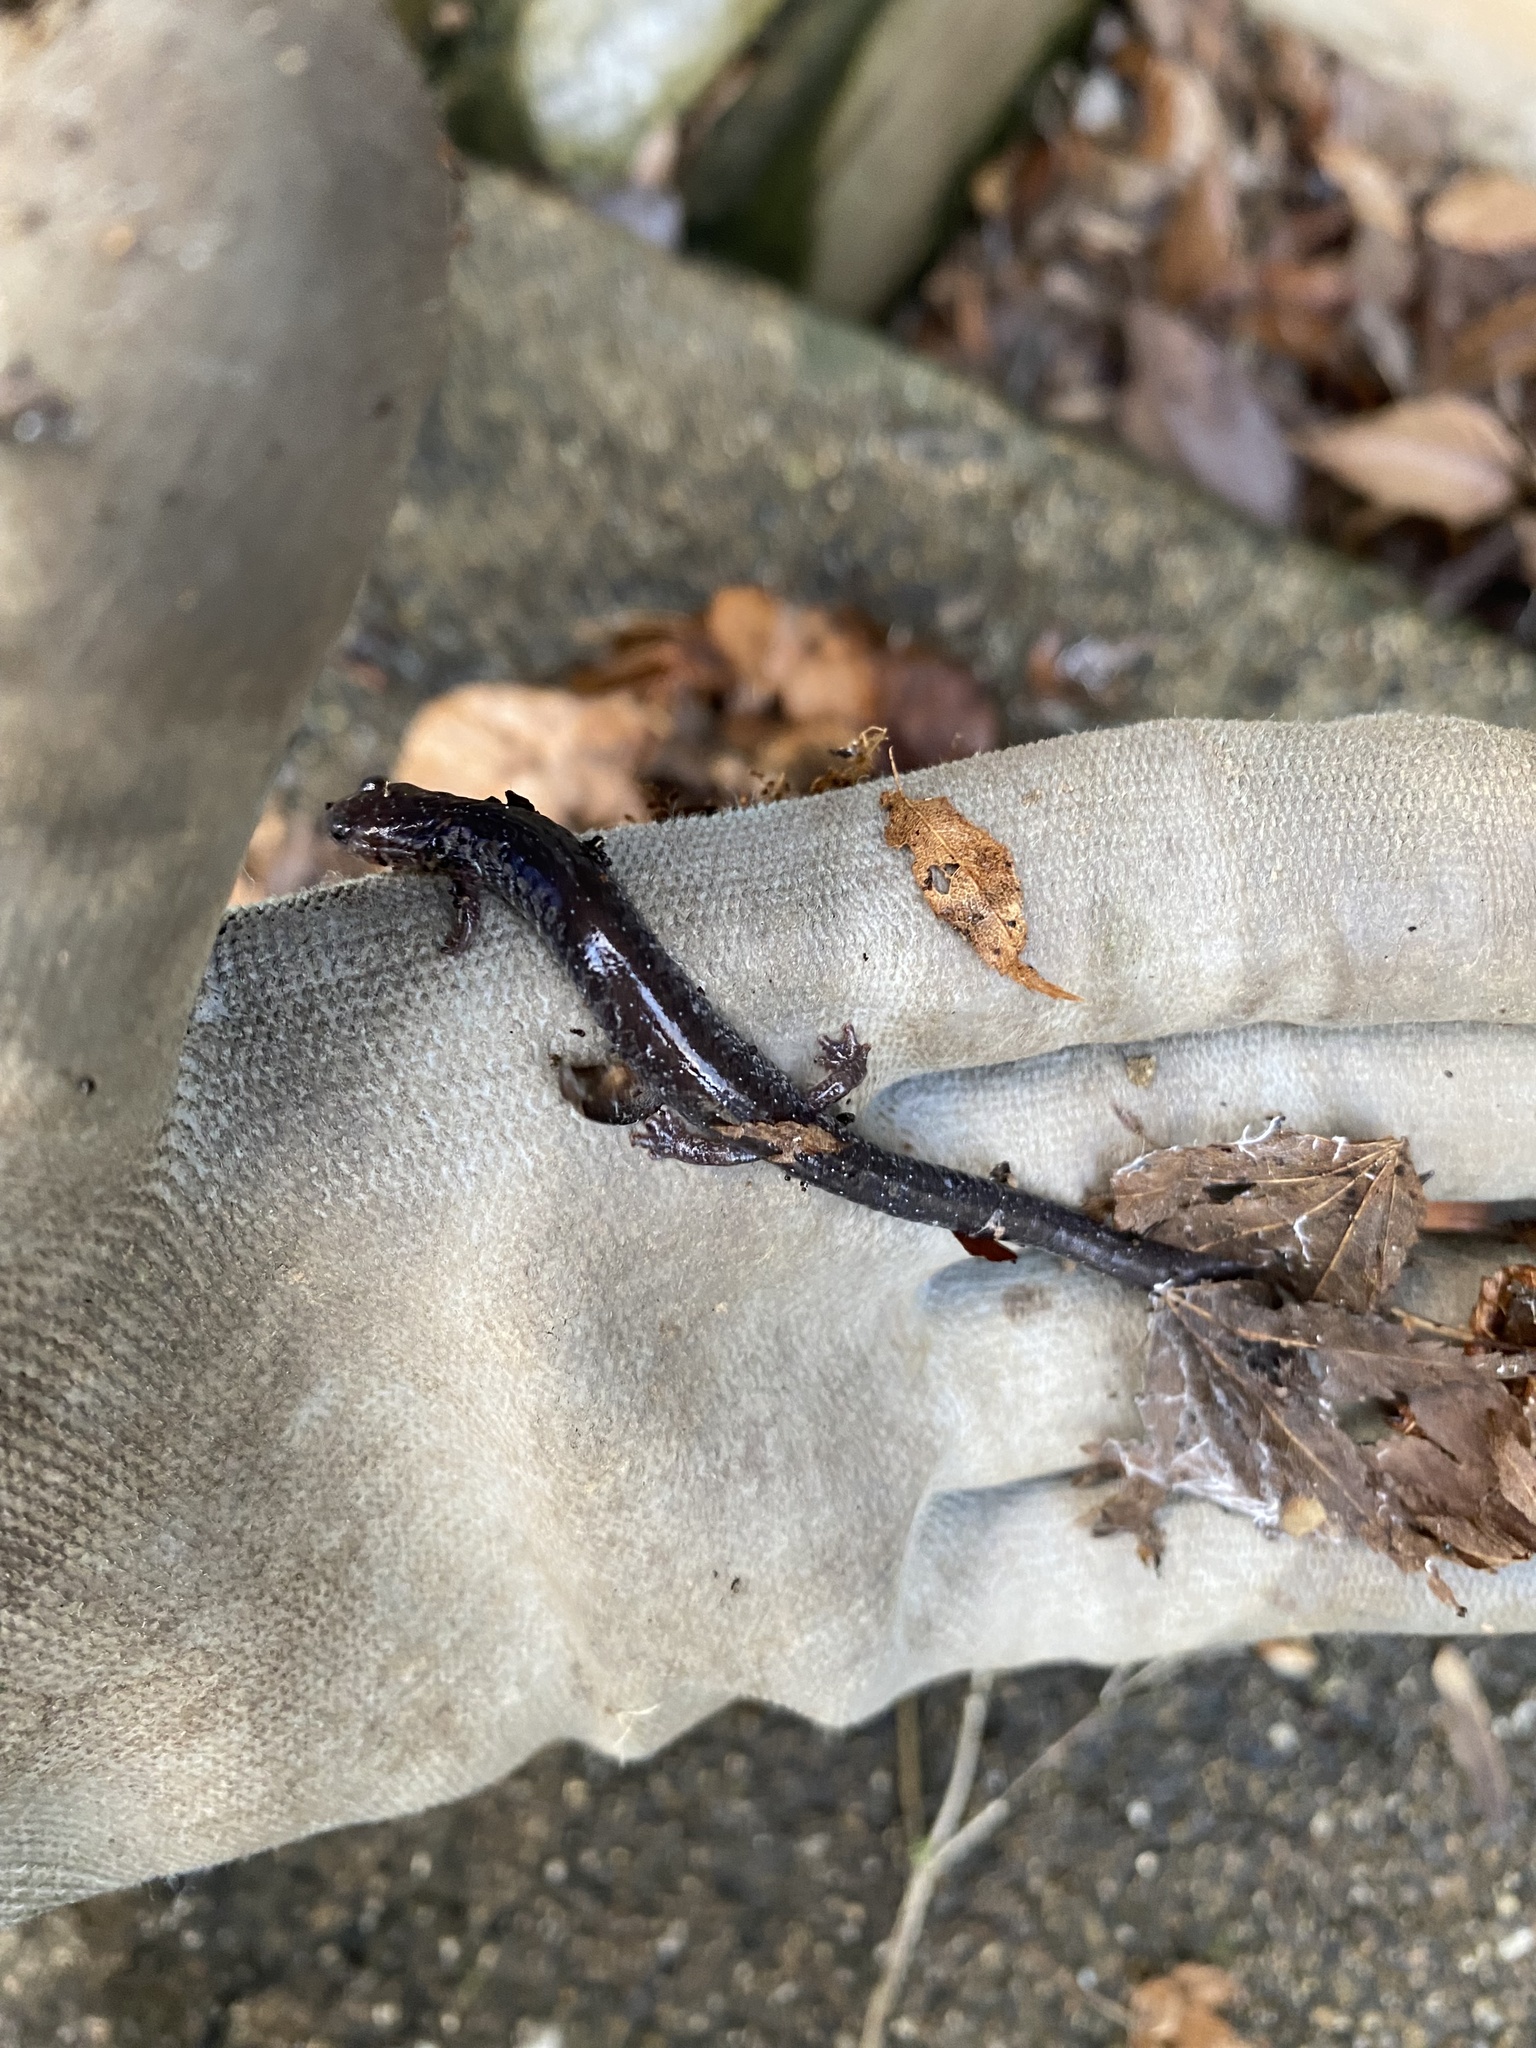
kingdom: Animalia
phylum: Chordata
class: Amphibia
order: Caudata
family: Plethodontidae
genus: Plethodon
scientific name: Plethodon cinereus
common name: Redback salamander
